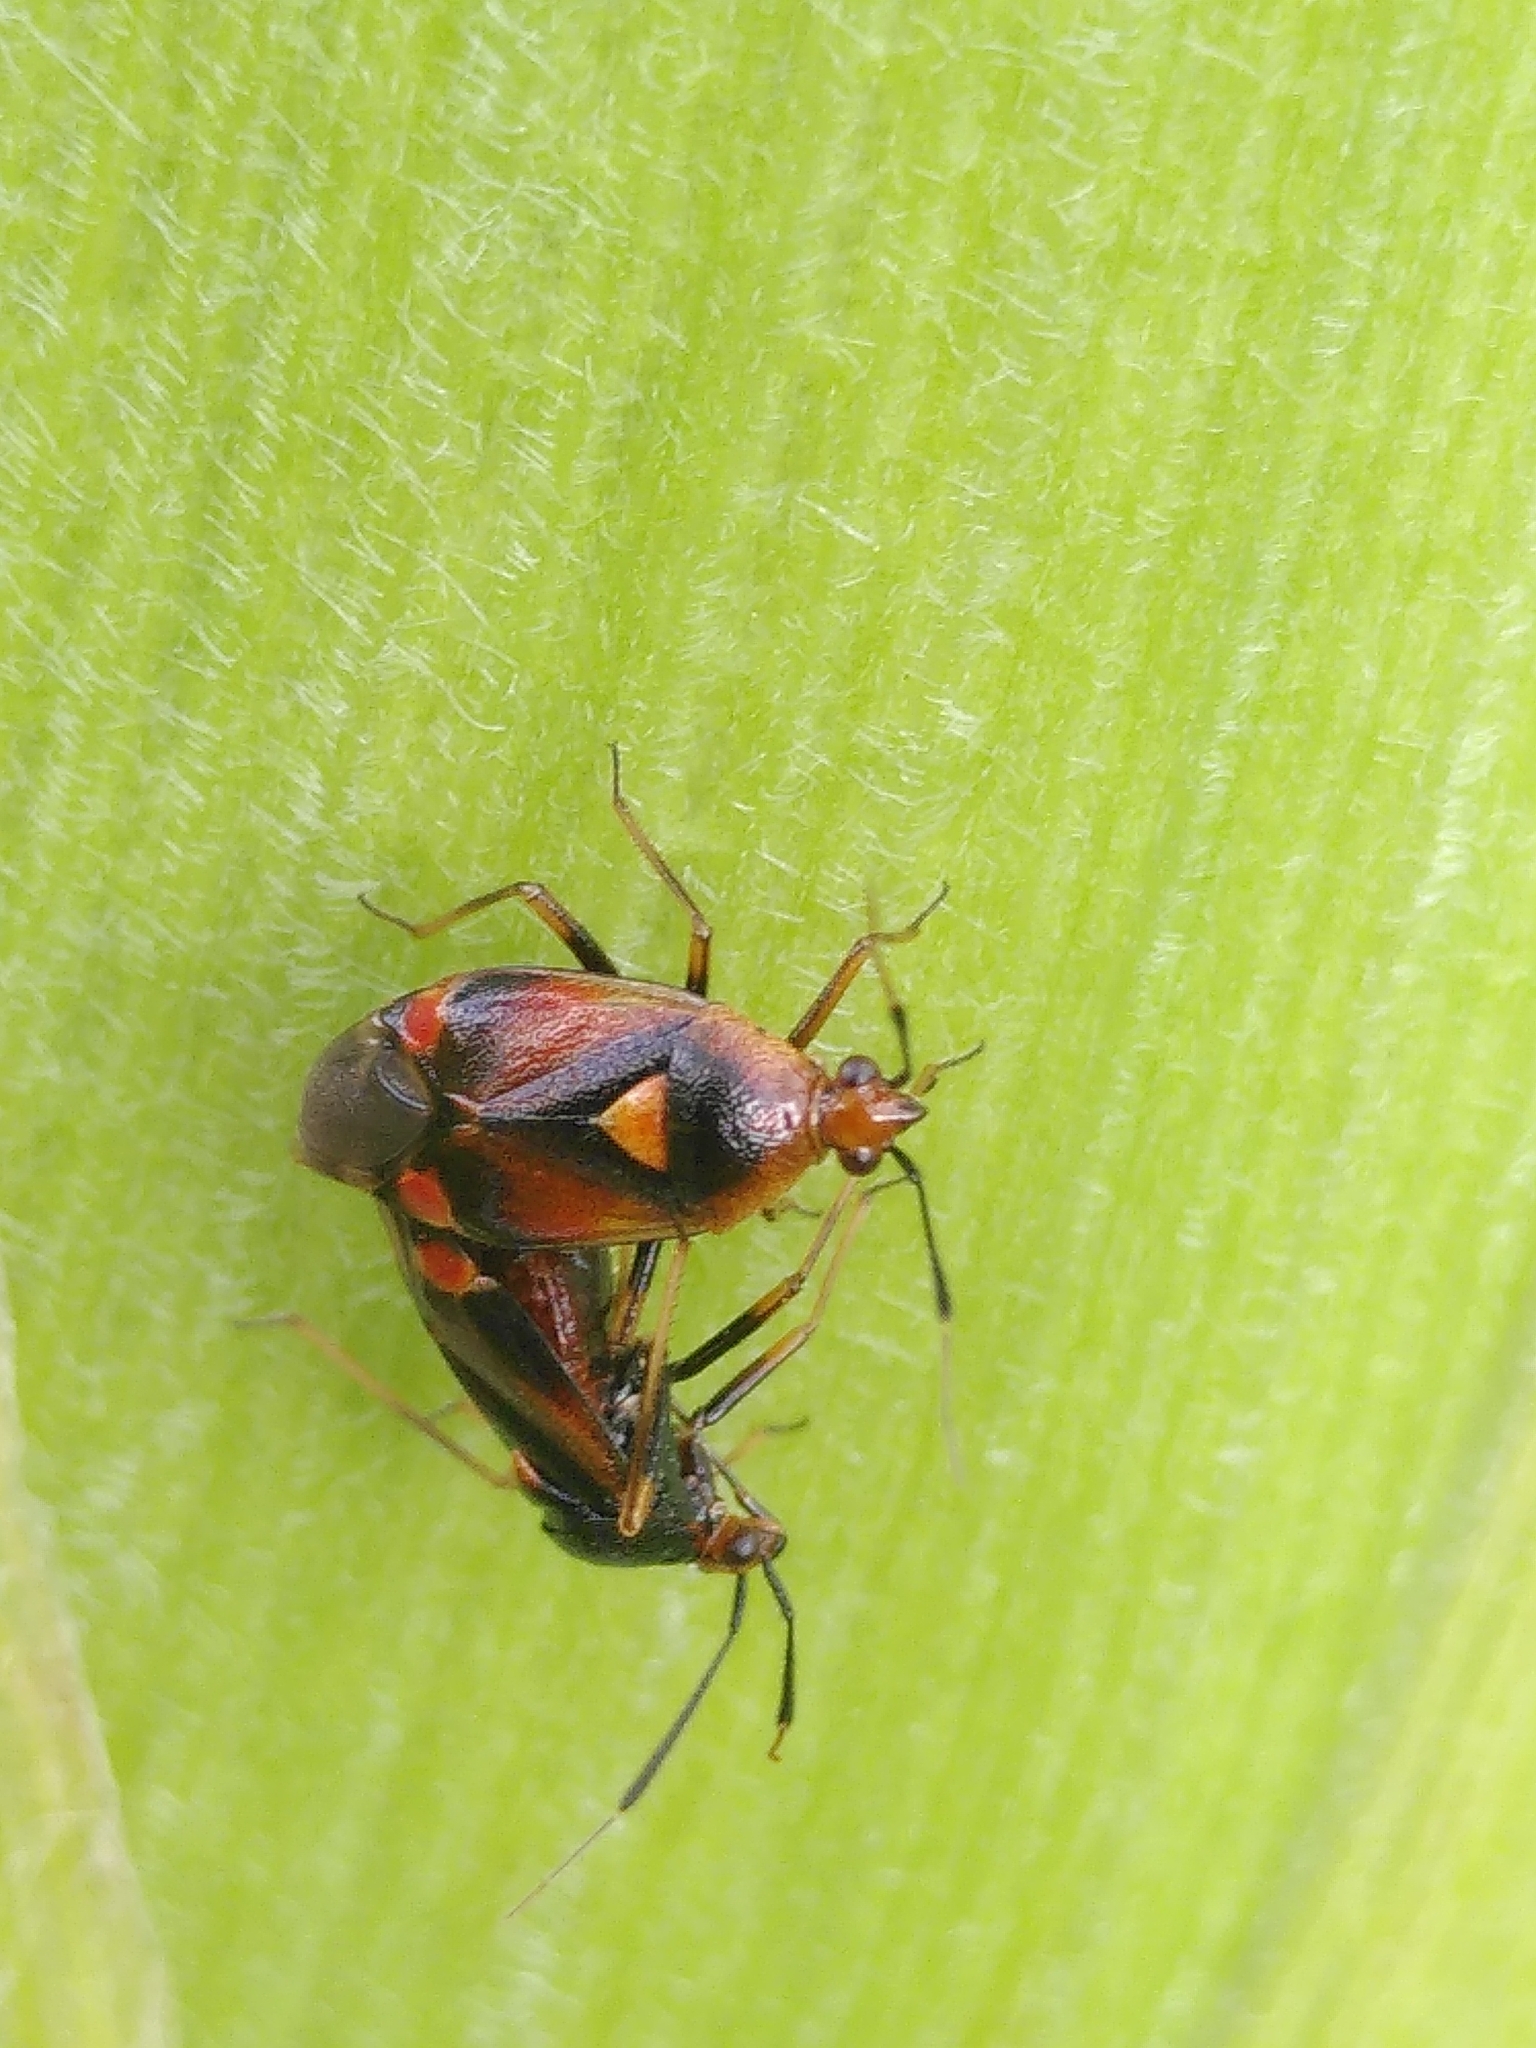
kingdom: Animalia
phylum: Arthropoda
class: Insecta
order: Hemiptera
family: Miridae
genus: Deraeocoris
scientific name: Deraeocoris ruber
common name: Plant bug
